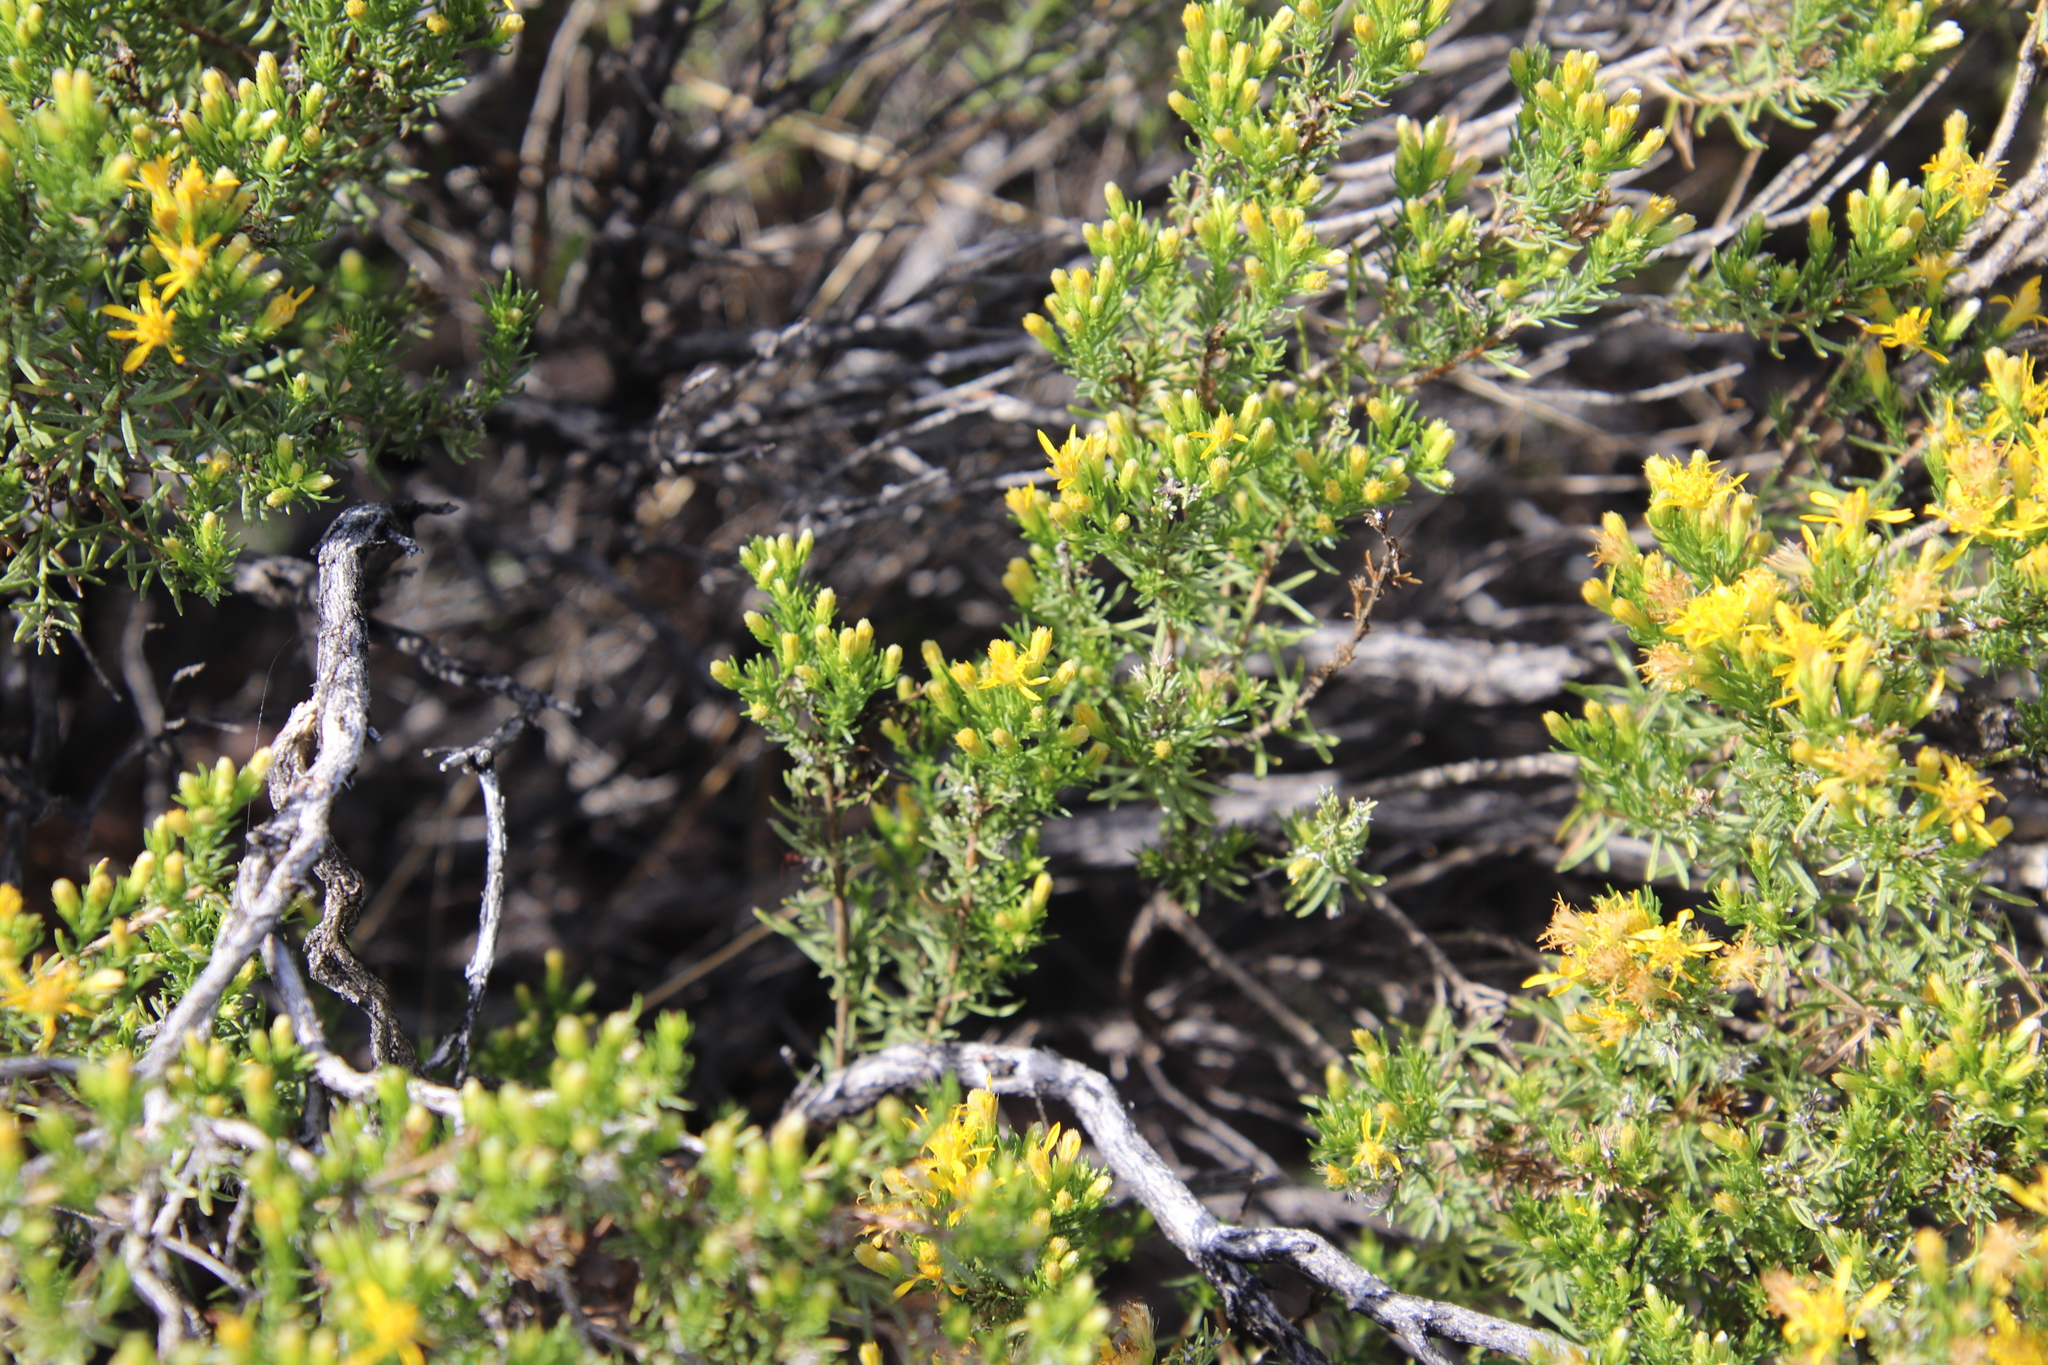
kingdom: Plantae
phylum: Tracheophyta
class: Magnoliopsida
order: Asterales
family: Asteraceae
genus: Ericameria
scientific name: Ericameria laricifolia
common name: Turpentine-bush
